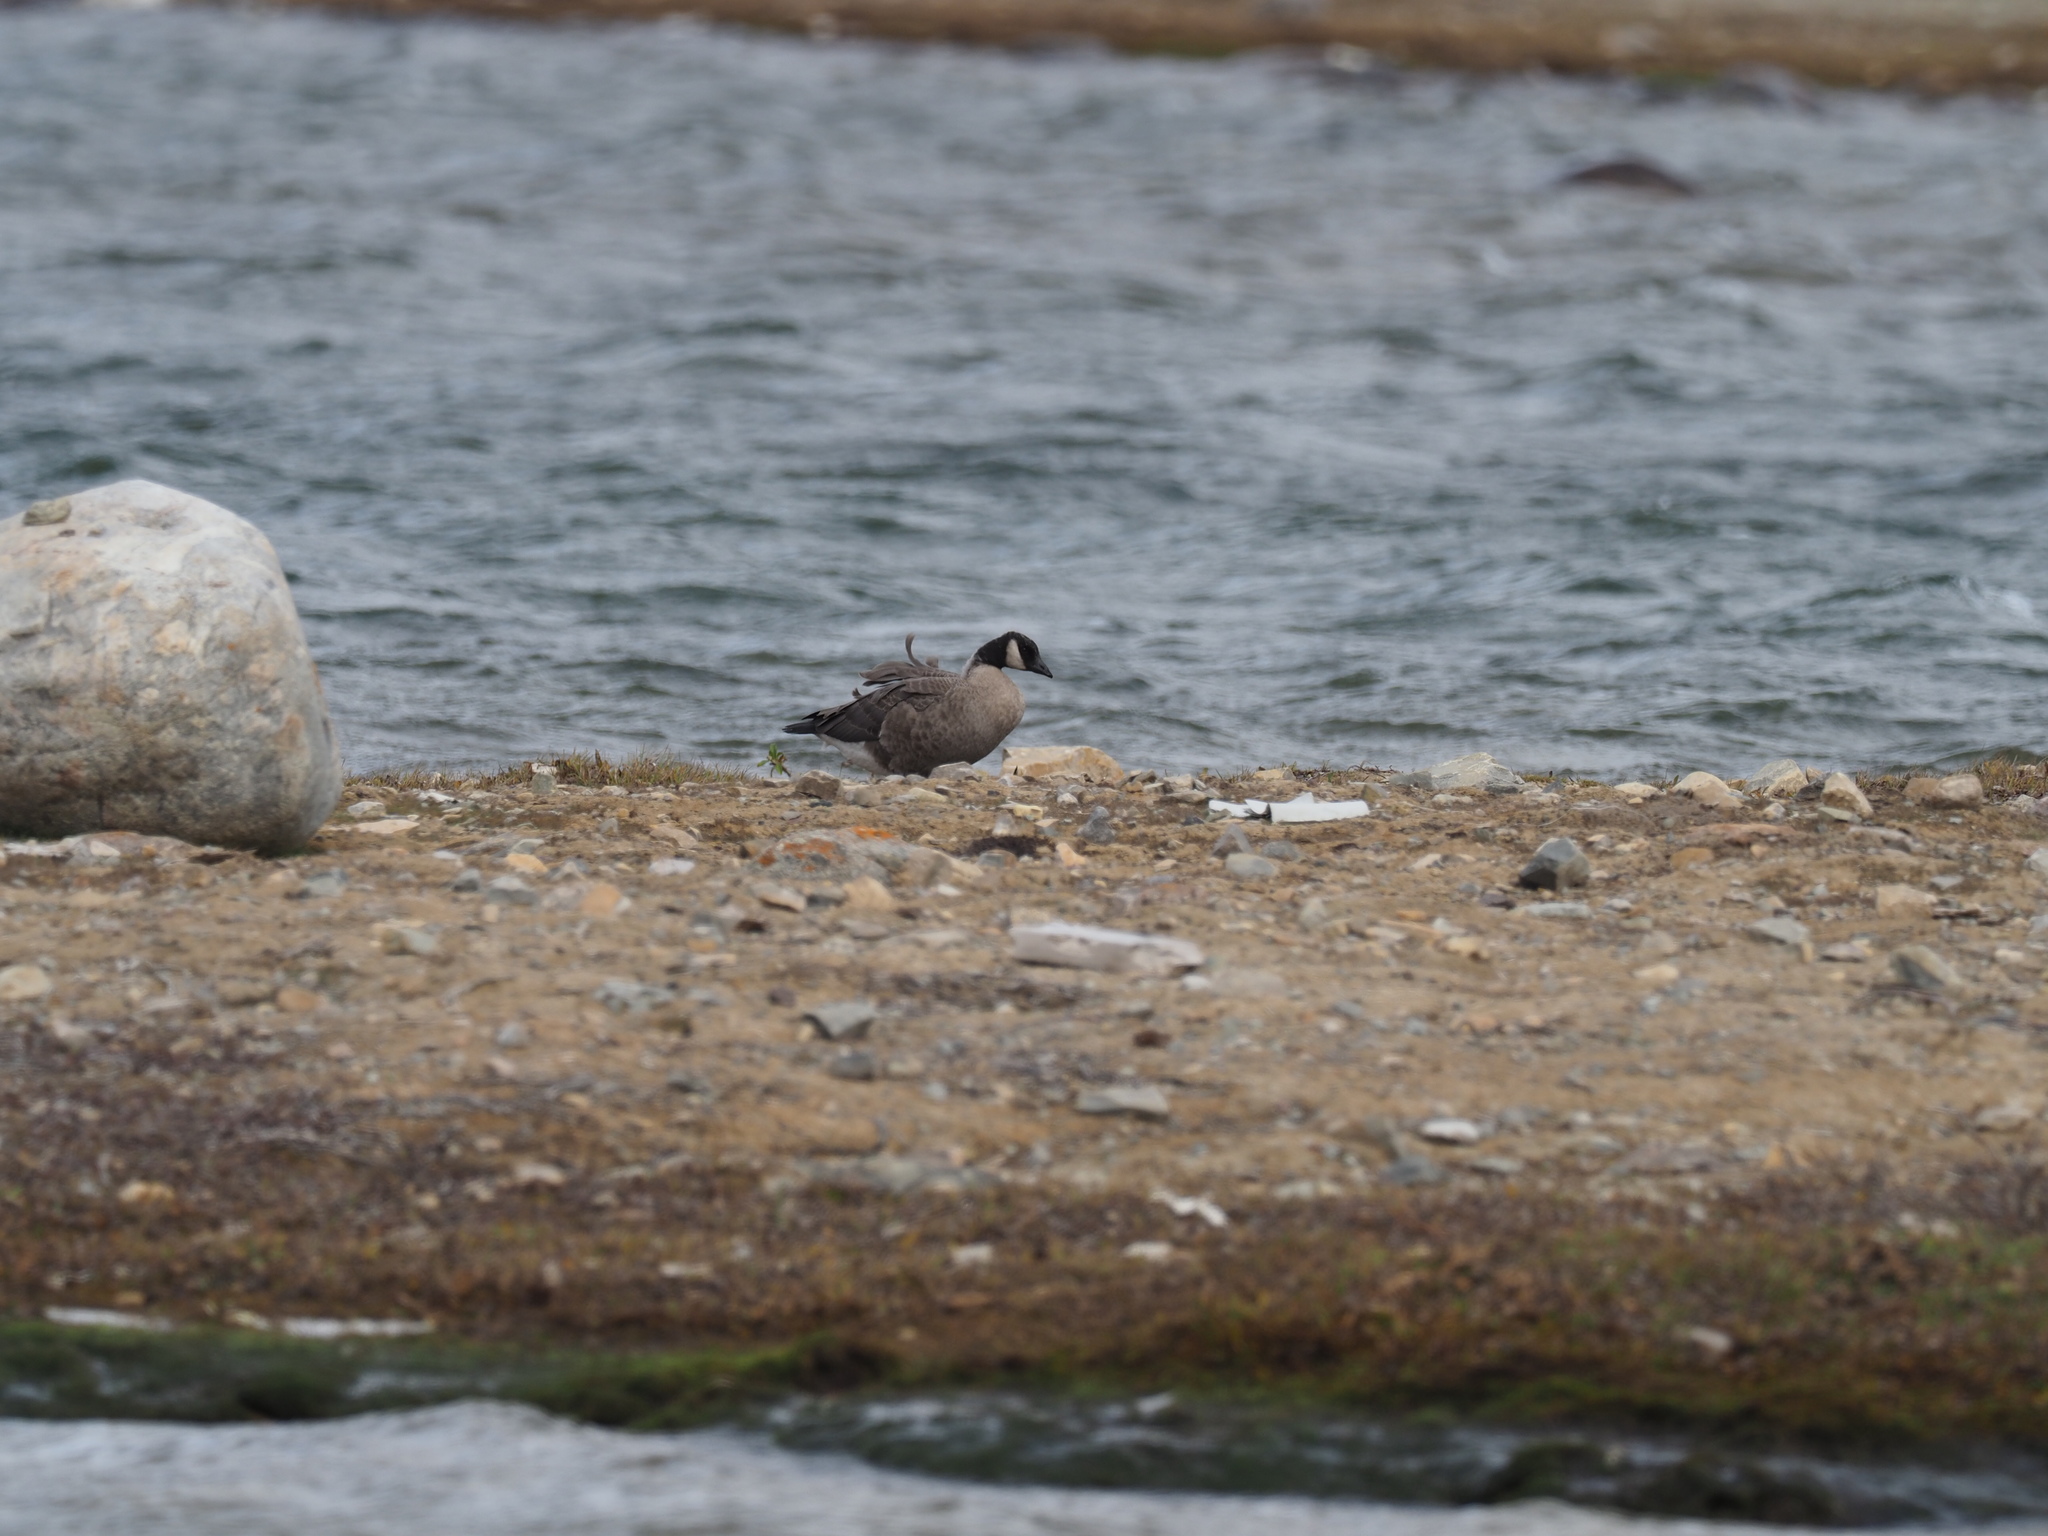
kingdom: Animalia
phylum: Chordata
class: Aves
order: Anseriformes
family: Anatidae
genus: Branta
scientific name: Branta hutchinsii
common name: Cackling goose
